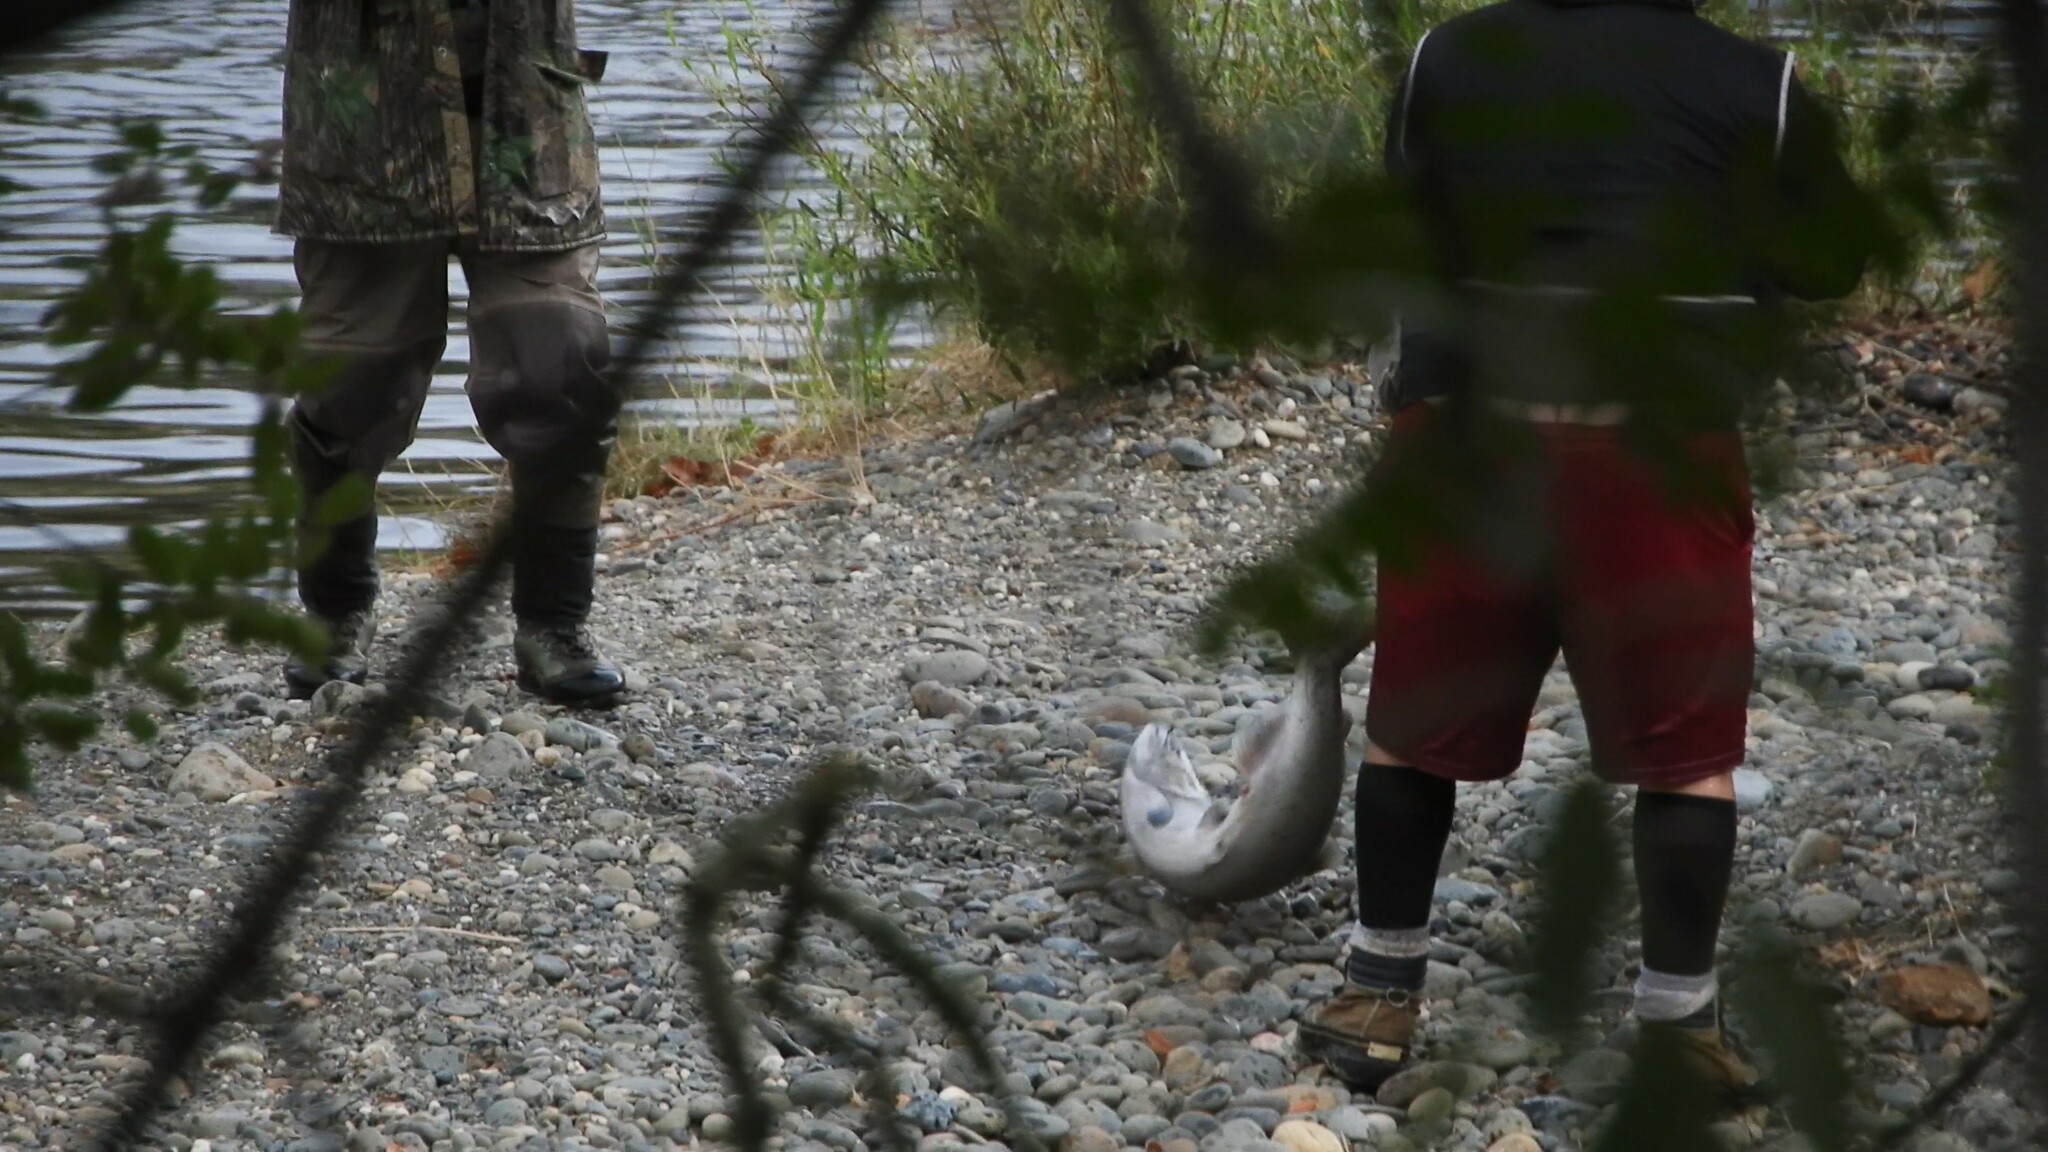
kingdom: Animalia
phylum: Chordata
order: Salmoniformes
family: Salmonidae
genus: Oncorhynchus
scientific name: Oncorhynchus tshawytscha
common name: Chinook salmon
